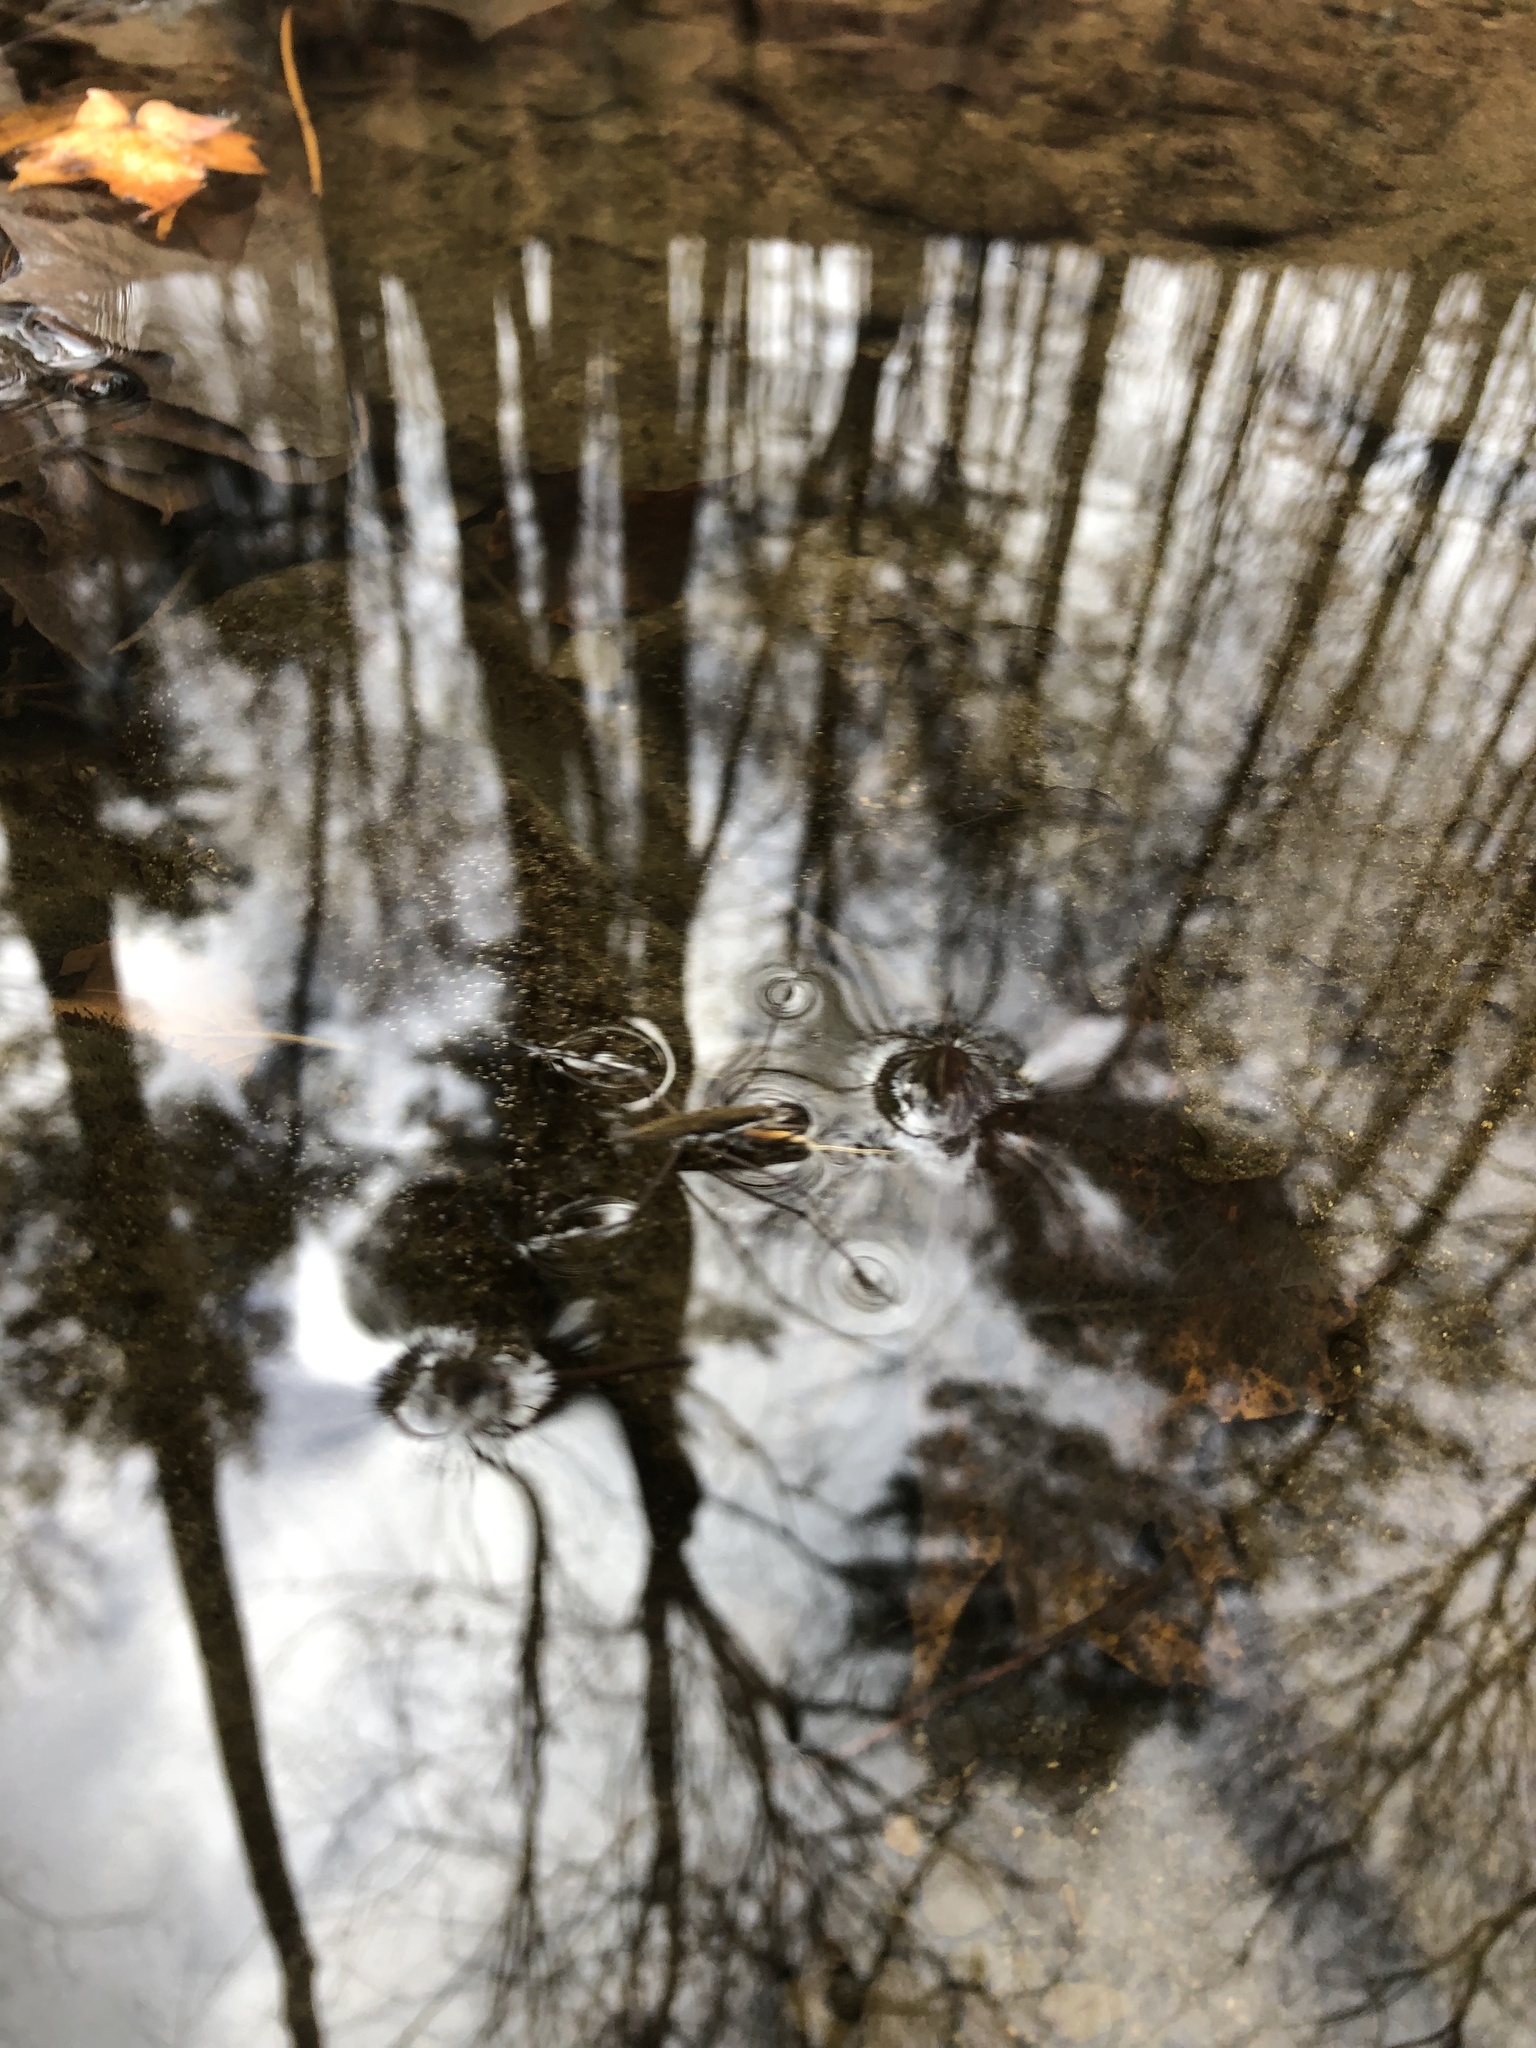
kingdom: Animalia
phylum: Arthropoda
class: Insecta
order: Hemiptera
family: Gerridae
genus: Aquarius
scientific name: Aquarius remigis
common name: Common water strider
